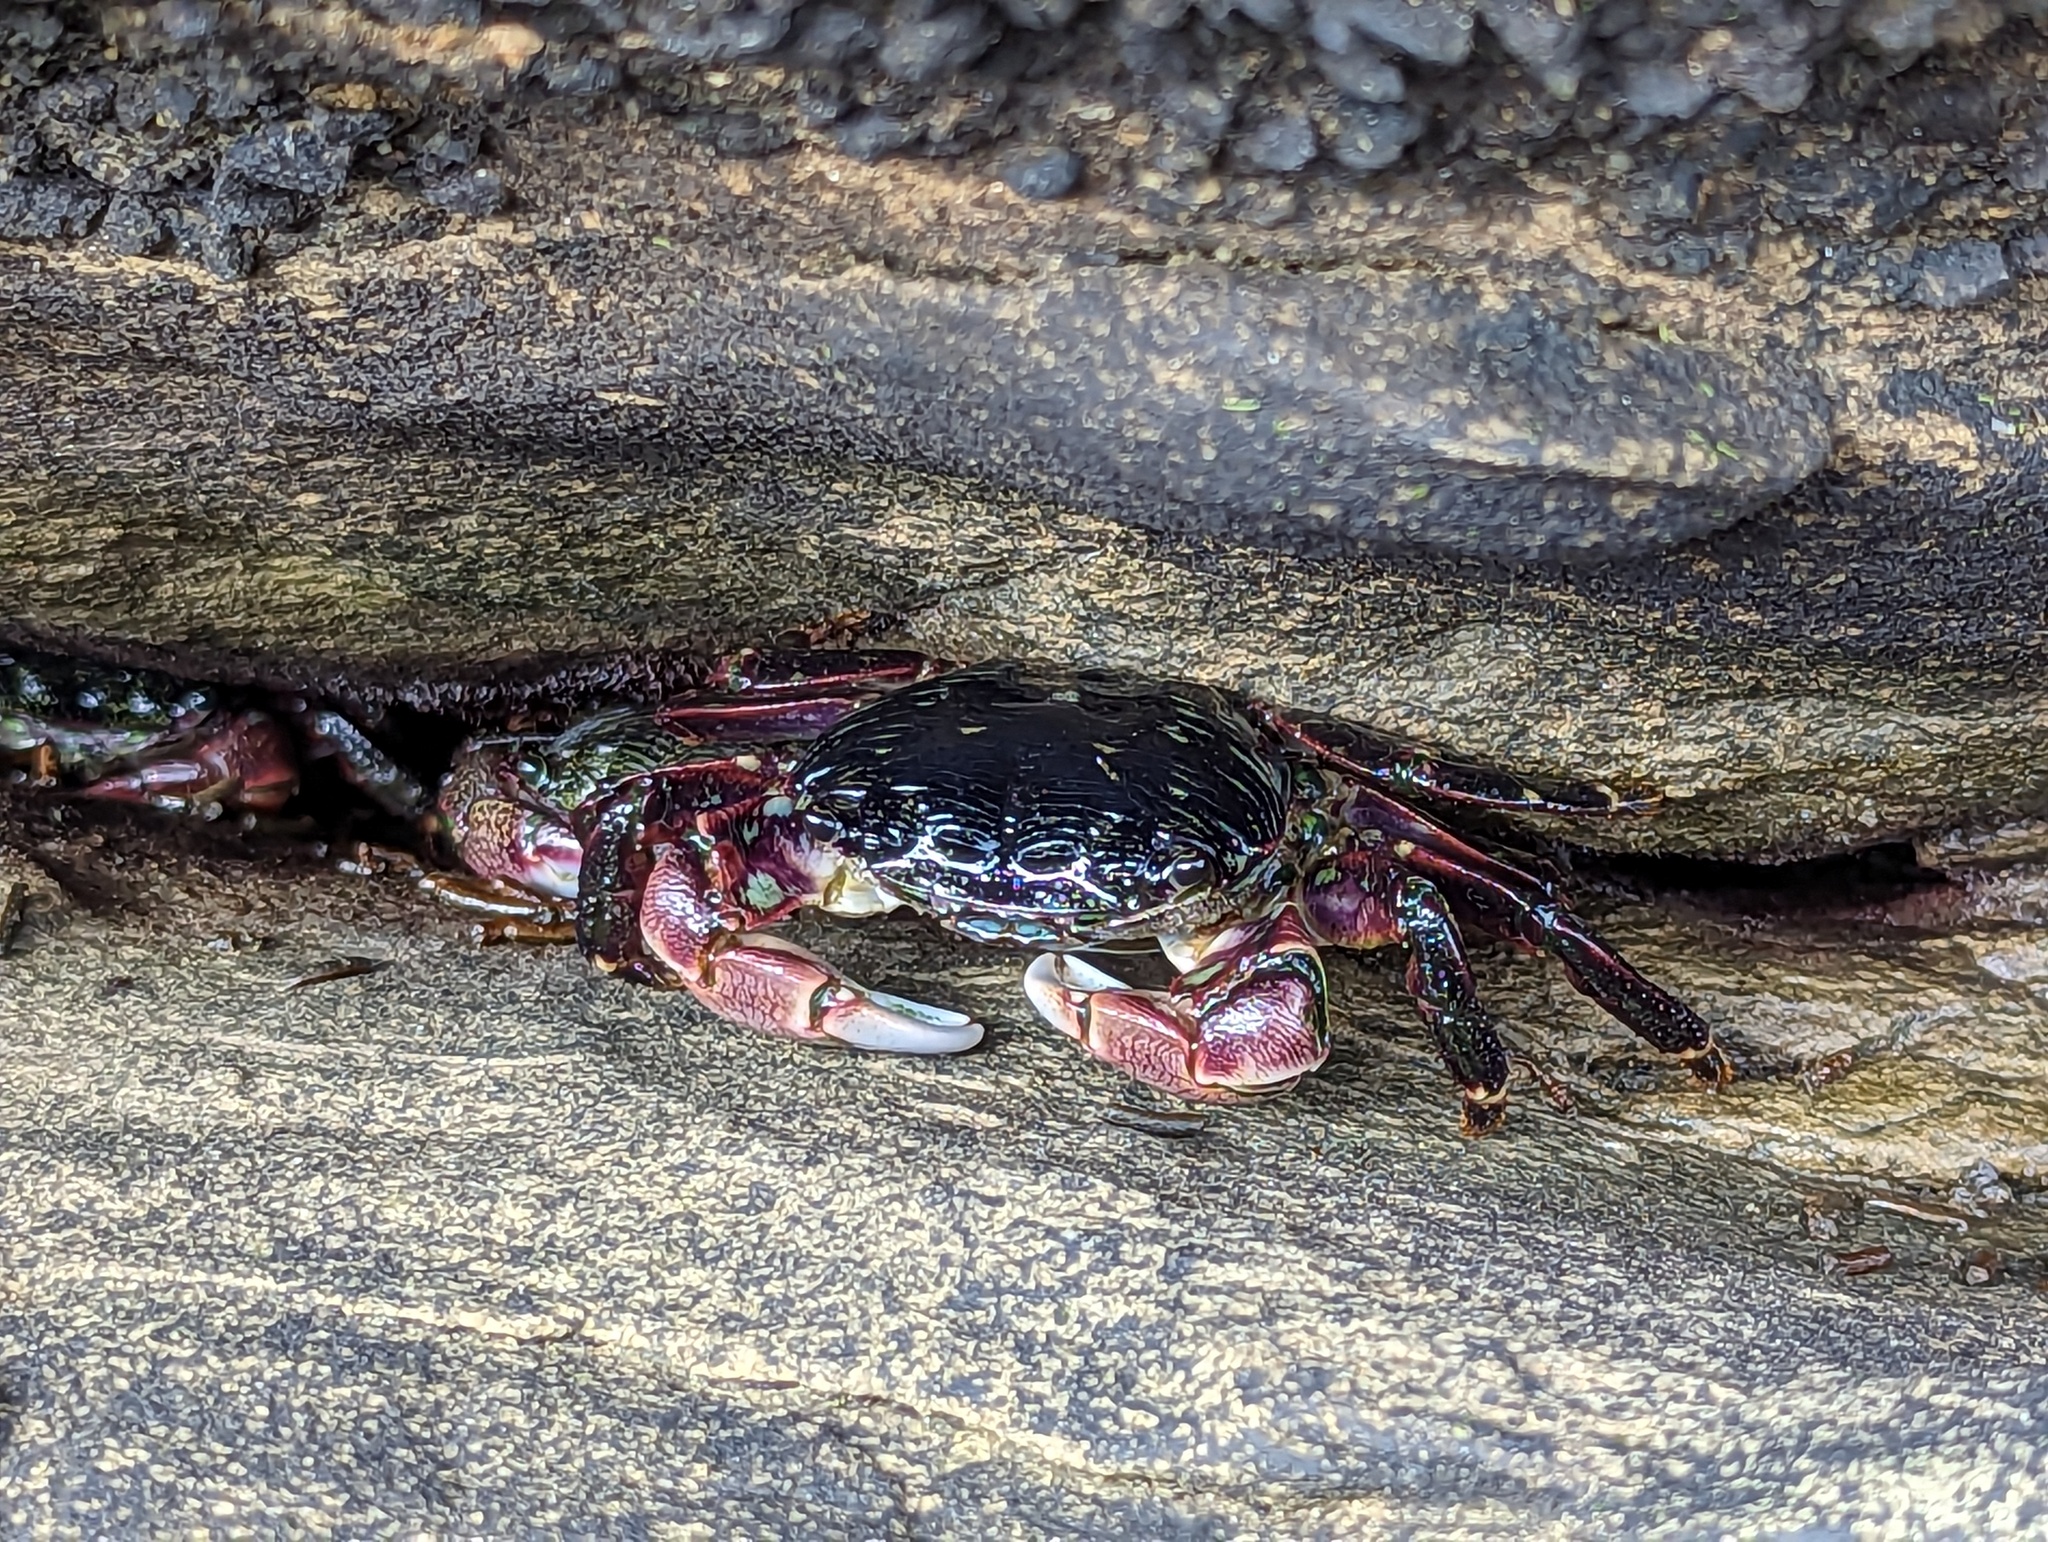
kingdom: Animalia
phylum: Arthropoda
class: Malacostraca
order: Decapoda
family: Grapsidae
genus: Pachygrapsus
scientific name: Pachygrapsus crassipes
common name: Striped shore crab
